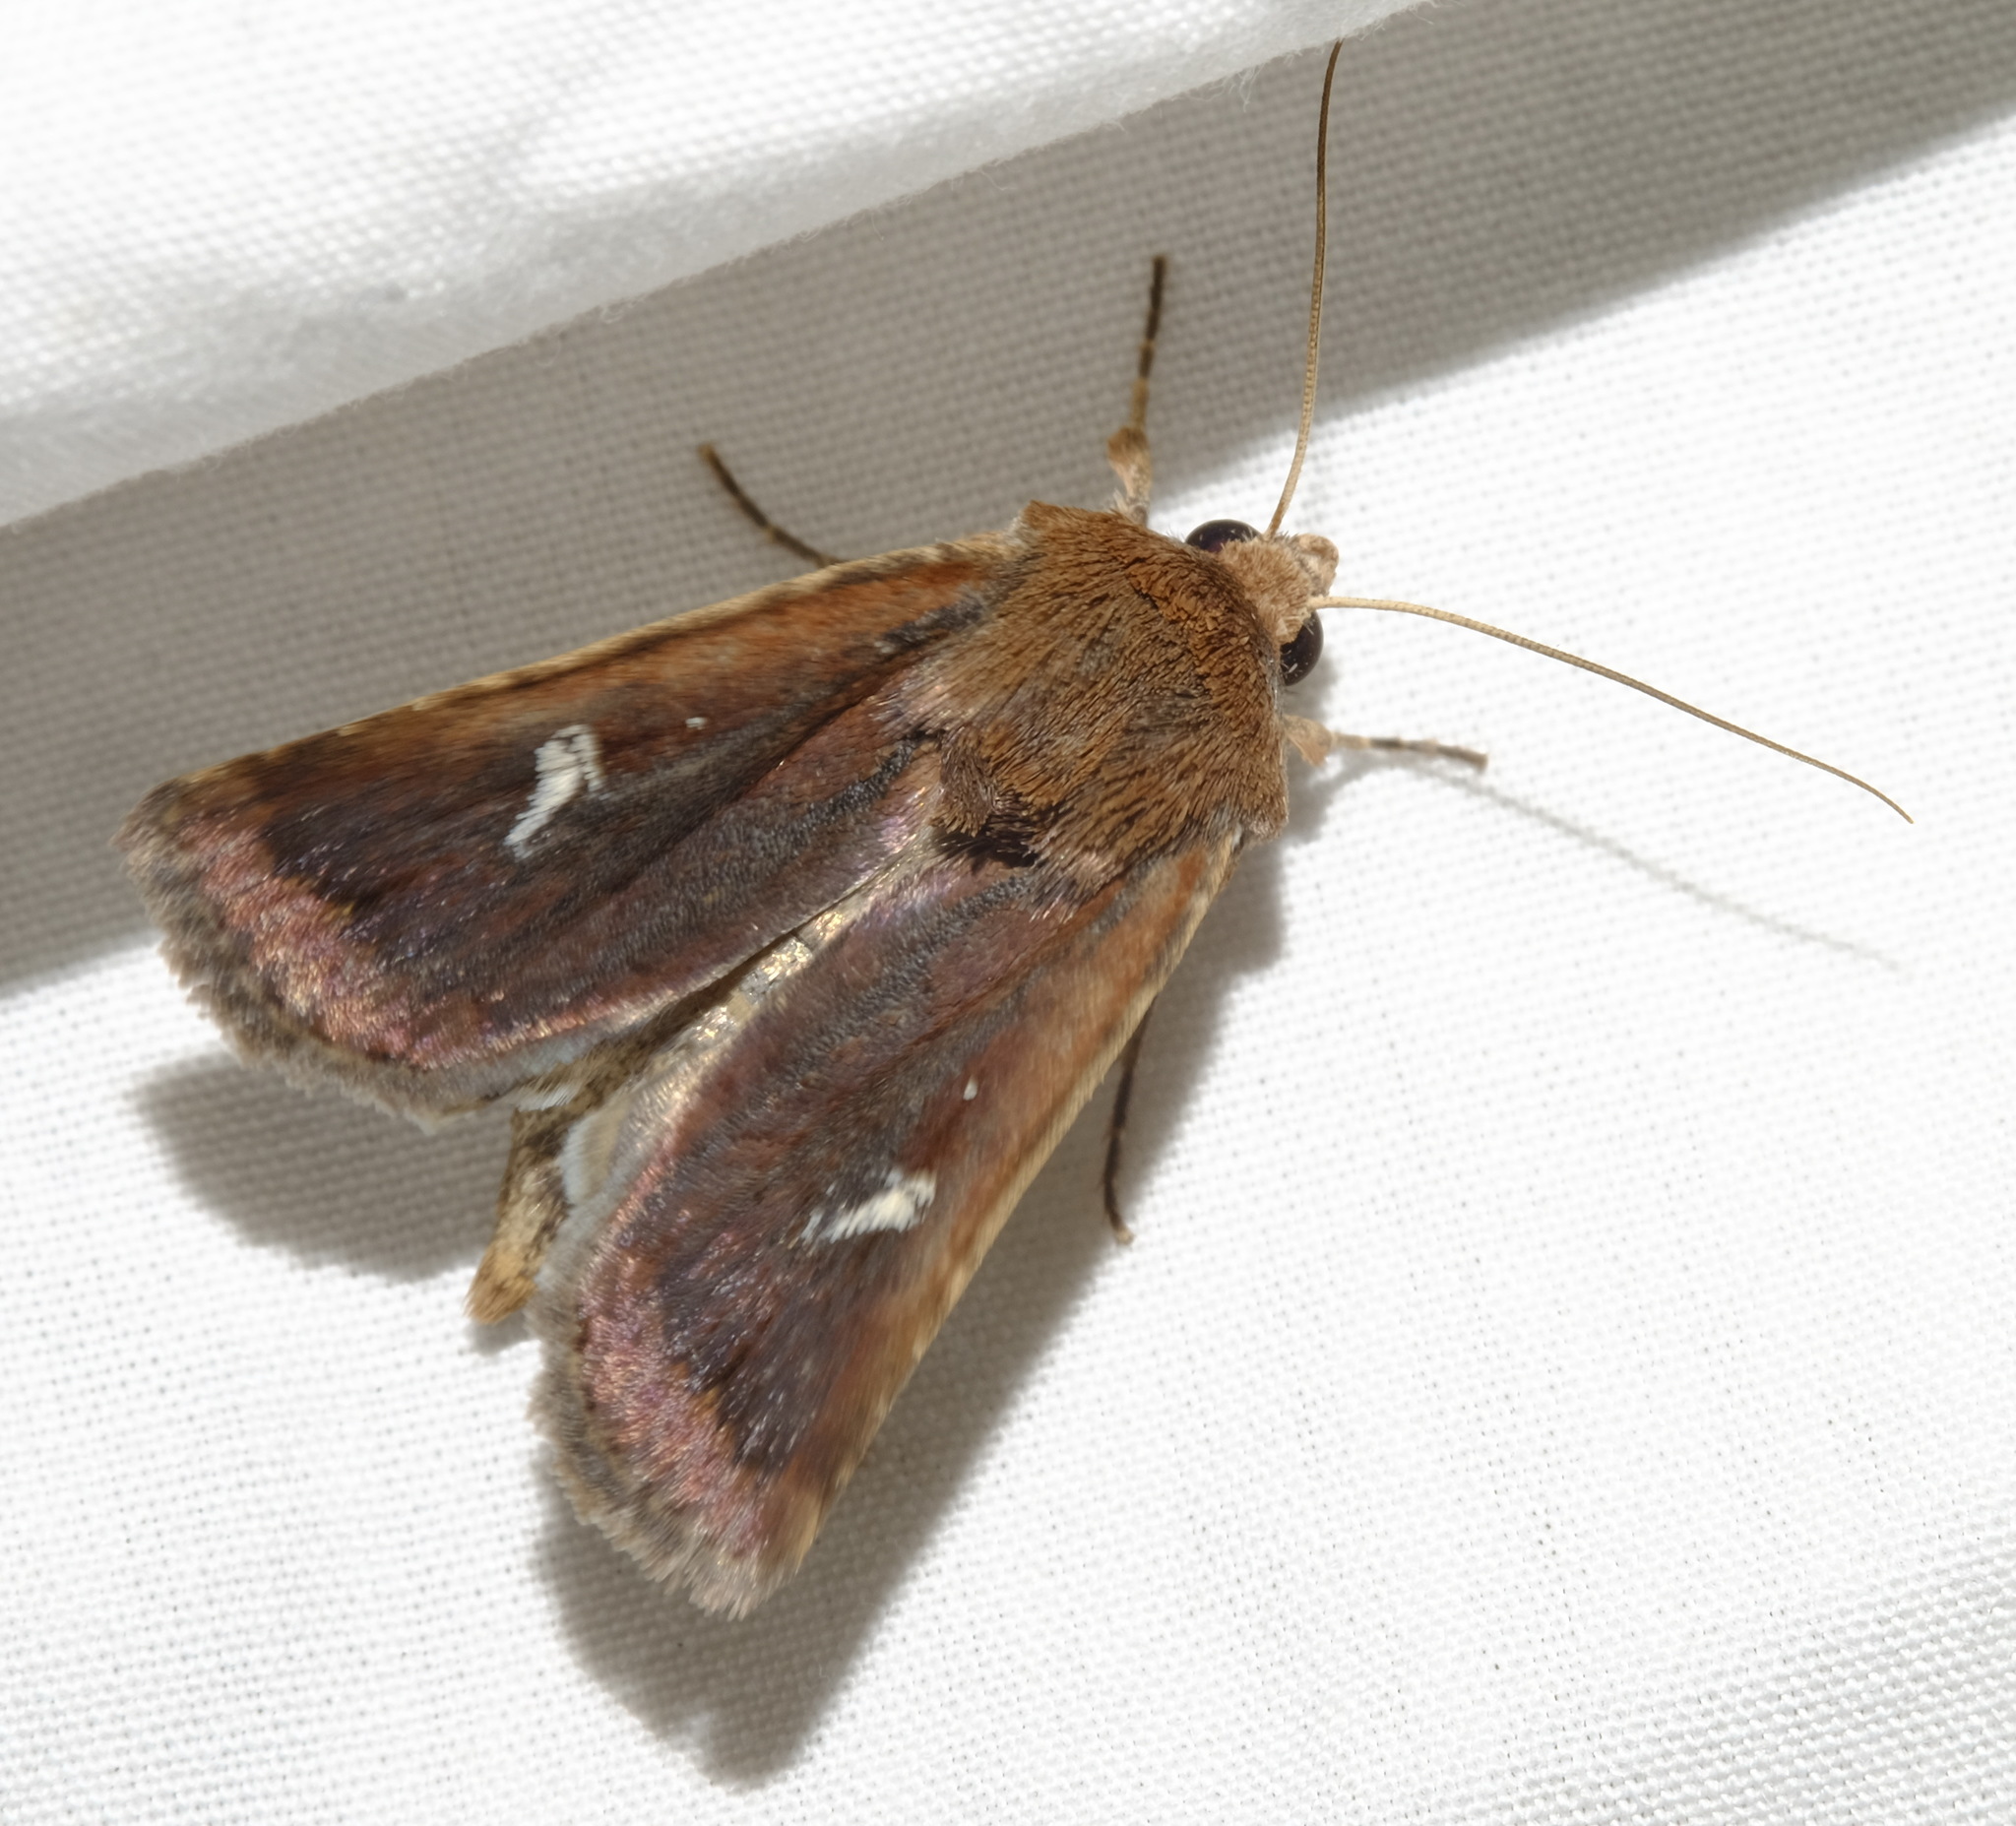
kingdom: Animalia
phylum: Arthropoda
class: Insecta
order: Lepidoptera
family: Noctuidae
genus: Proteuxoa
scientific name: Proteuxoa bistrigula
